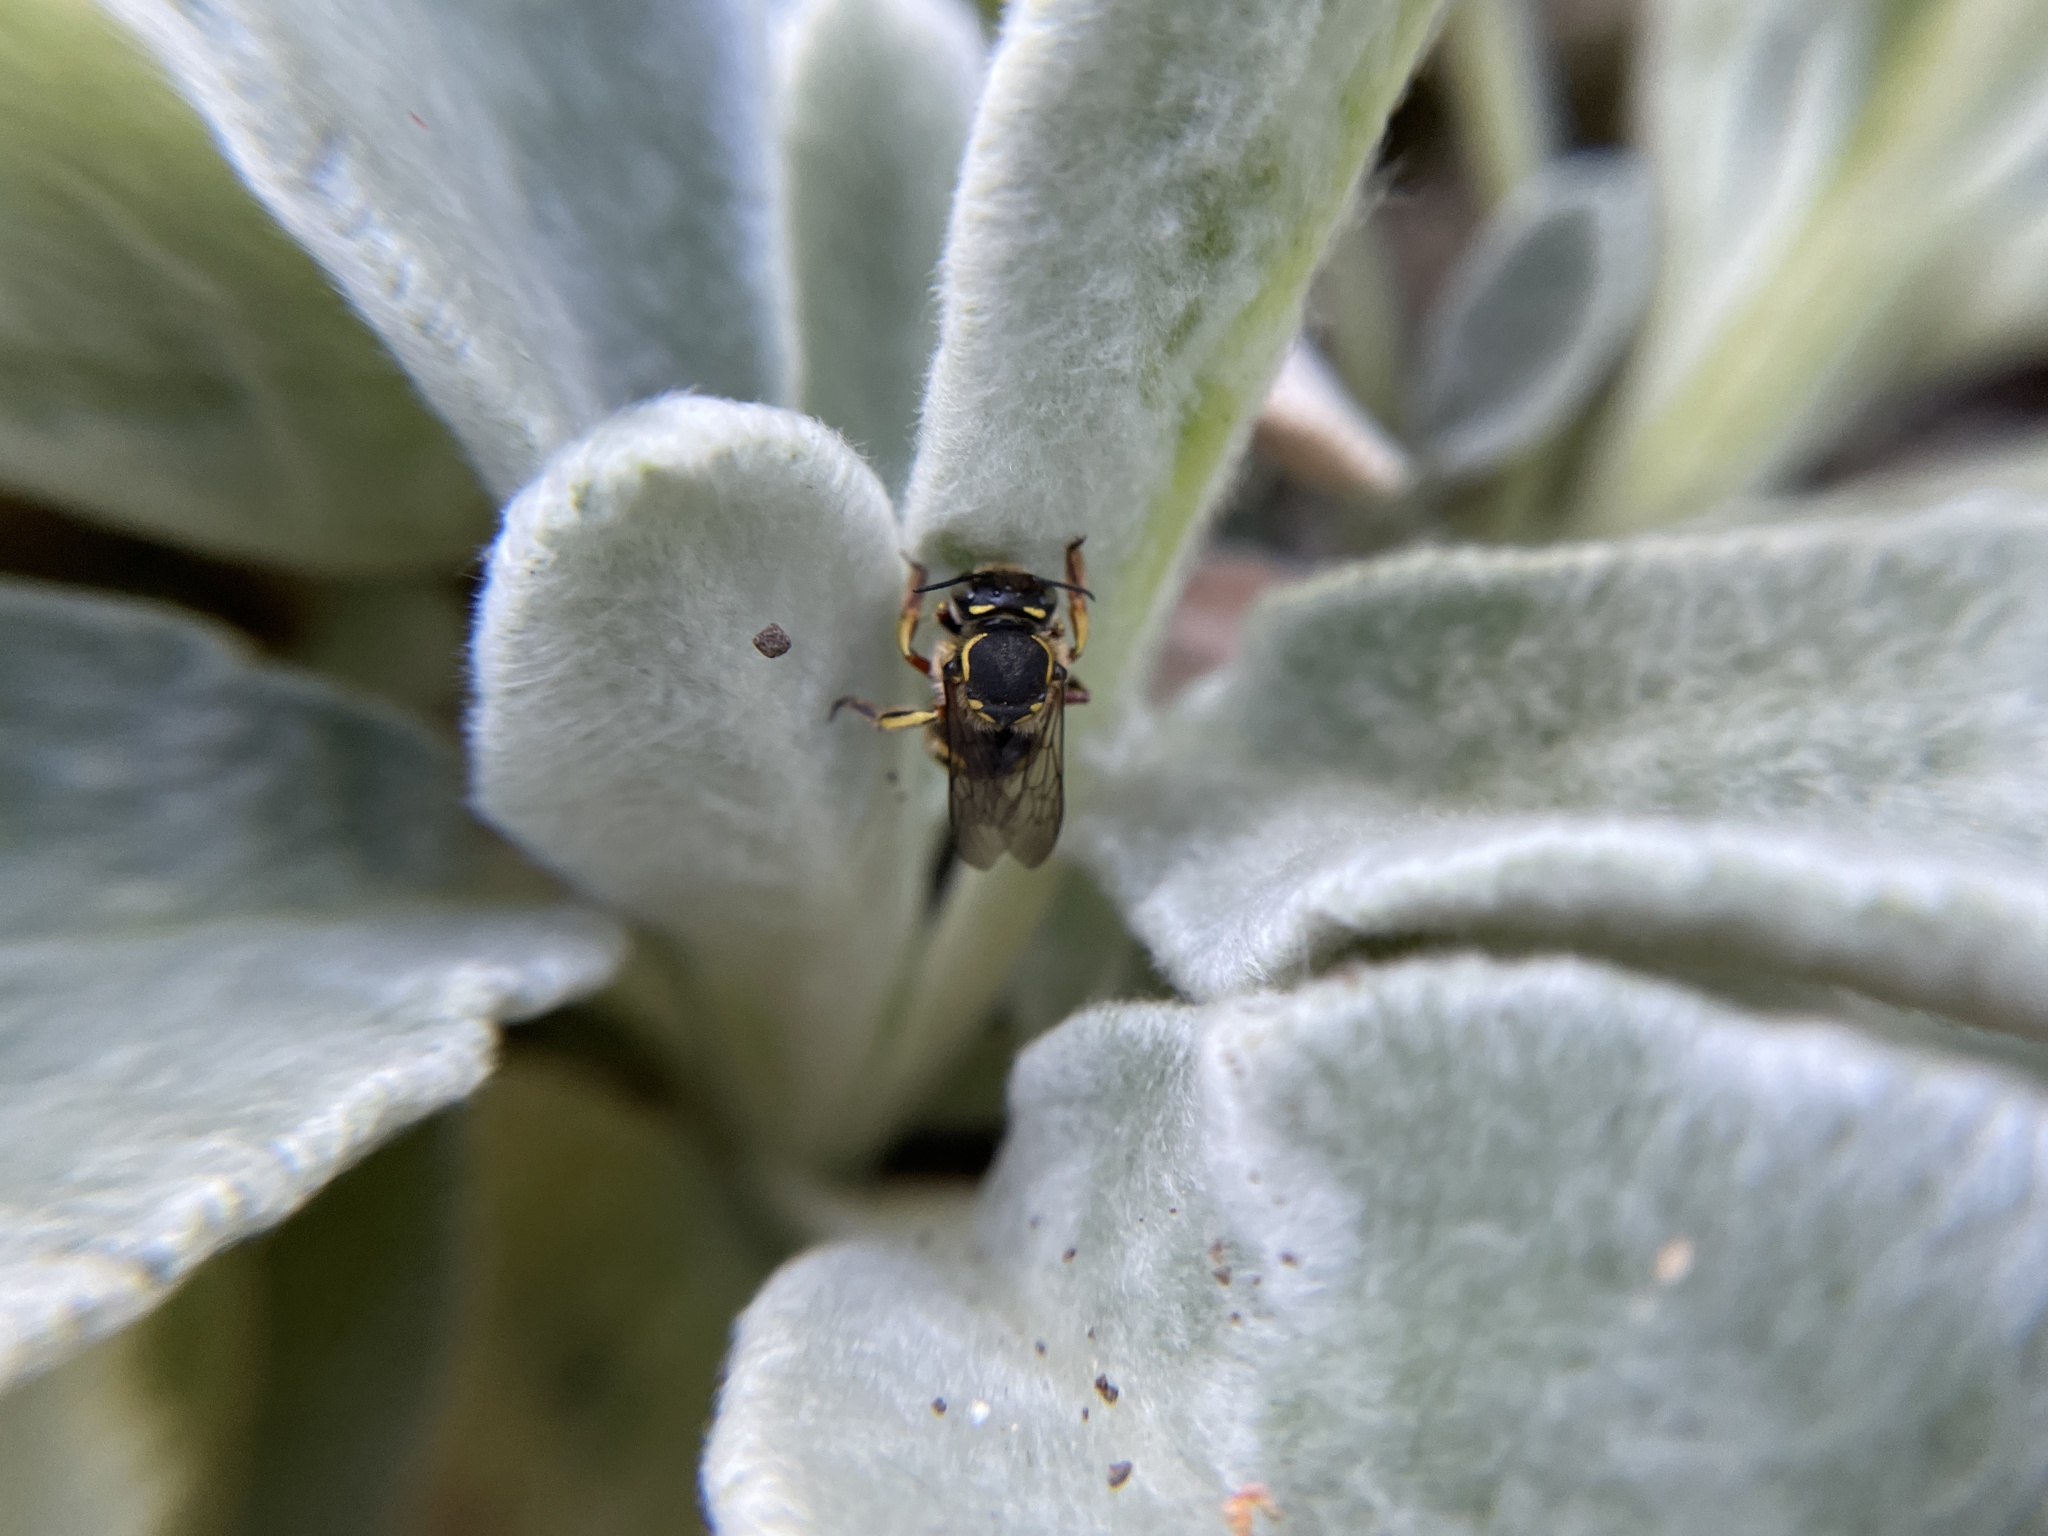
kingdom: Animalia
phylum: Arthropoda
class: Insecta
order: Hymenoptera
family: Megachilidae
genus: Anthidium
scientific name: Anthidium manicatum
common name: Wool carder bee
